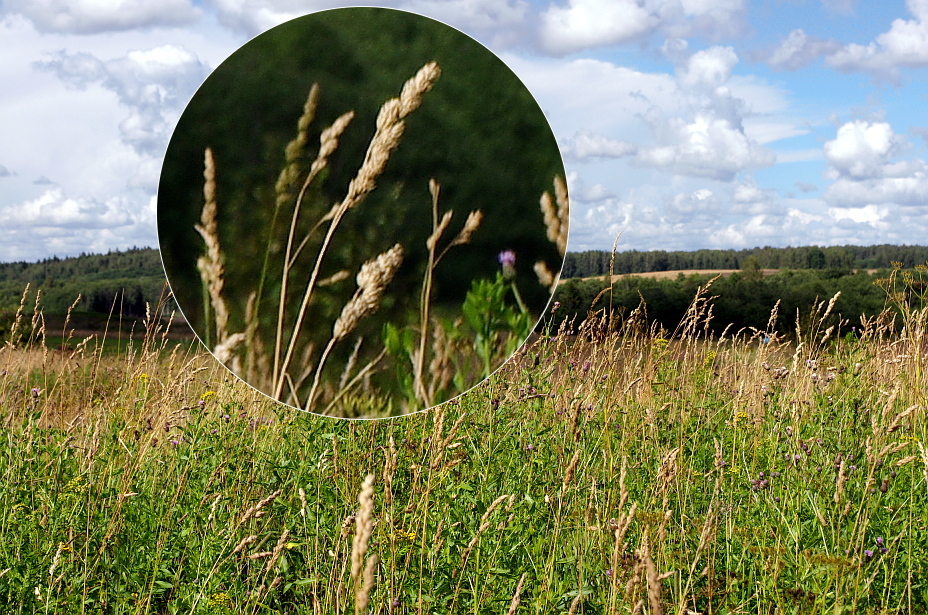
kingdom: Plantae
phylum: Tracheophyta
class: Liliopsida
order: Poales
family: Poaceae
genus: Dactylis
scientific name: Dactylis glomerata
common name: Orchardgrass
